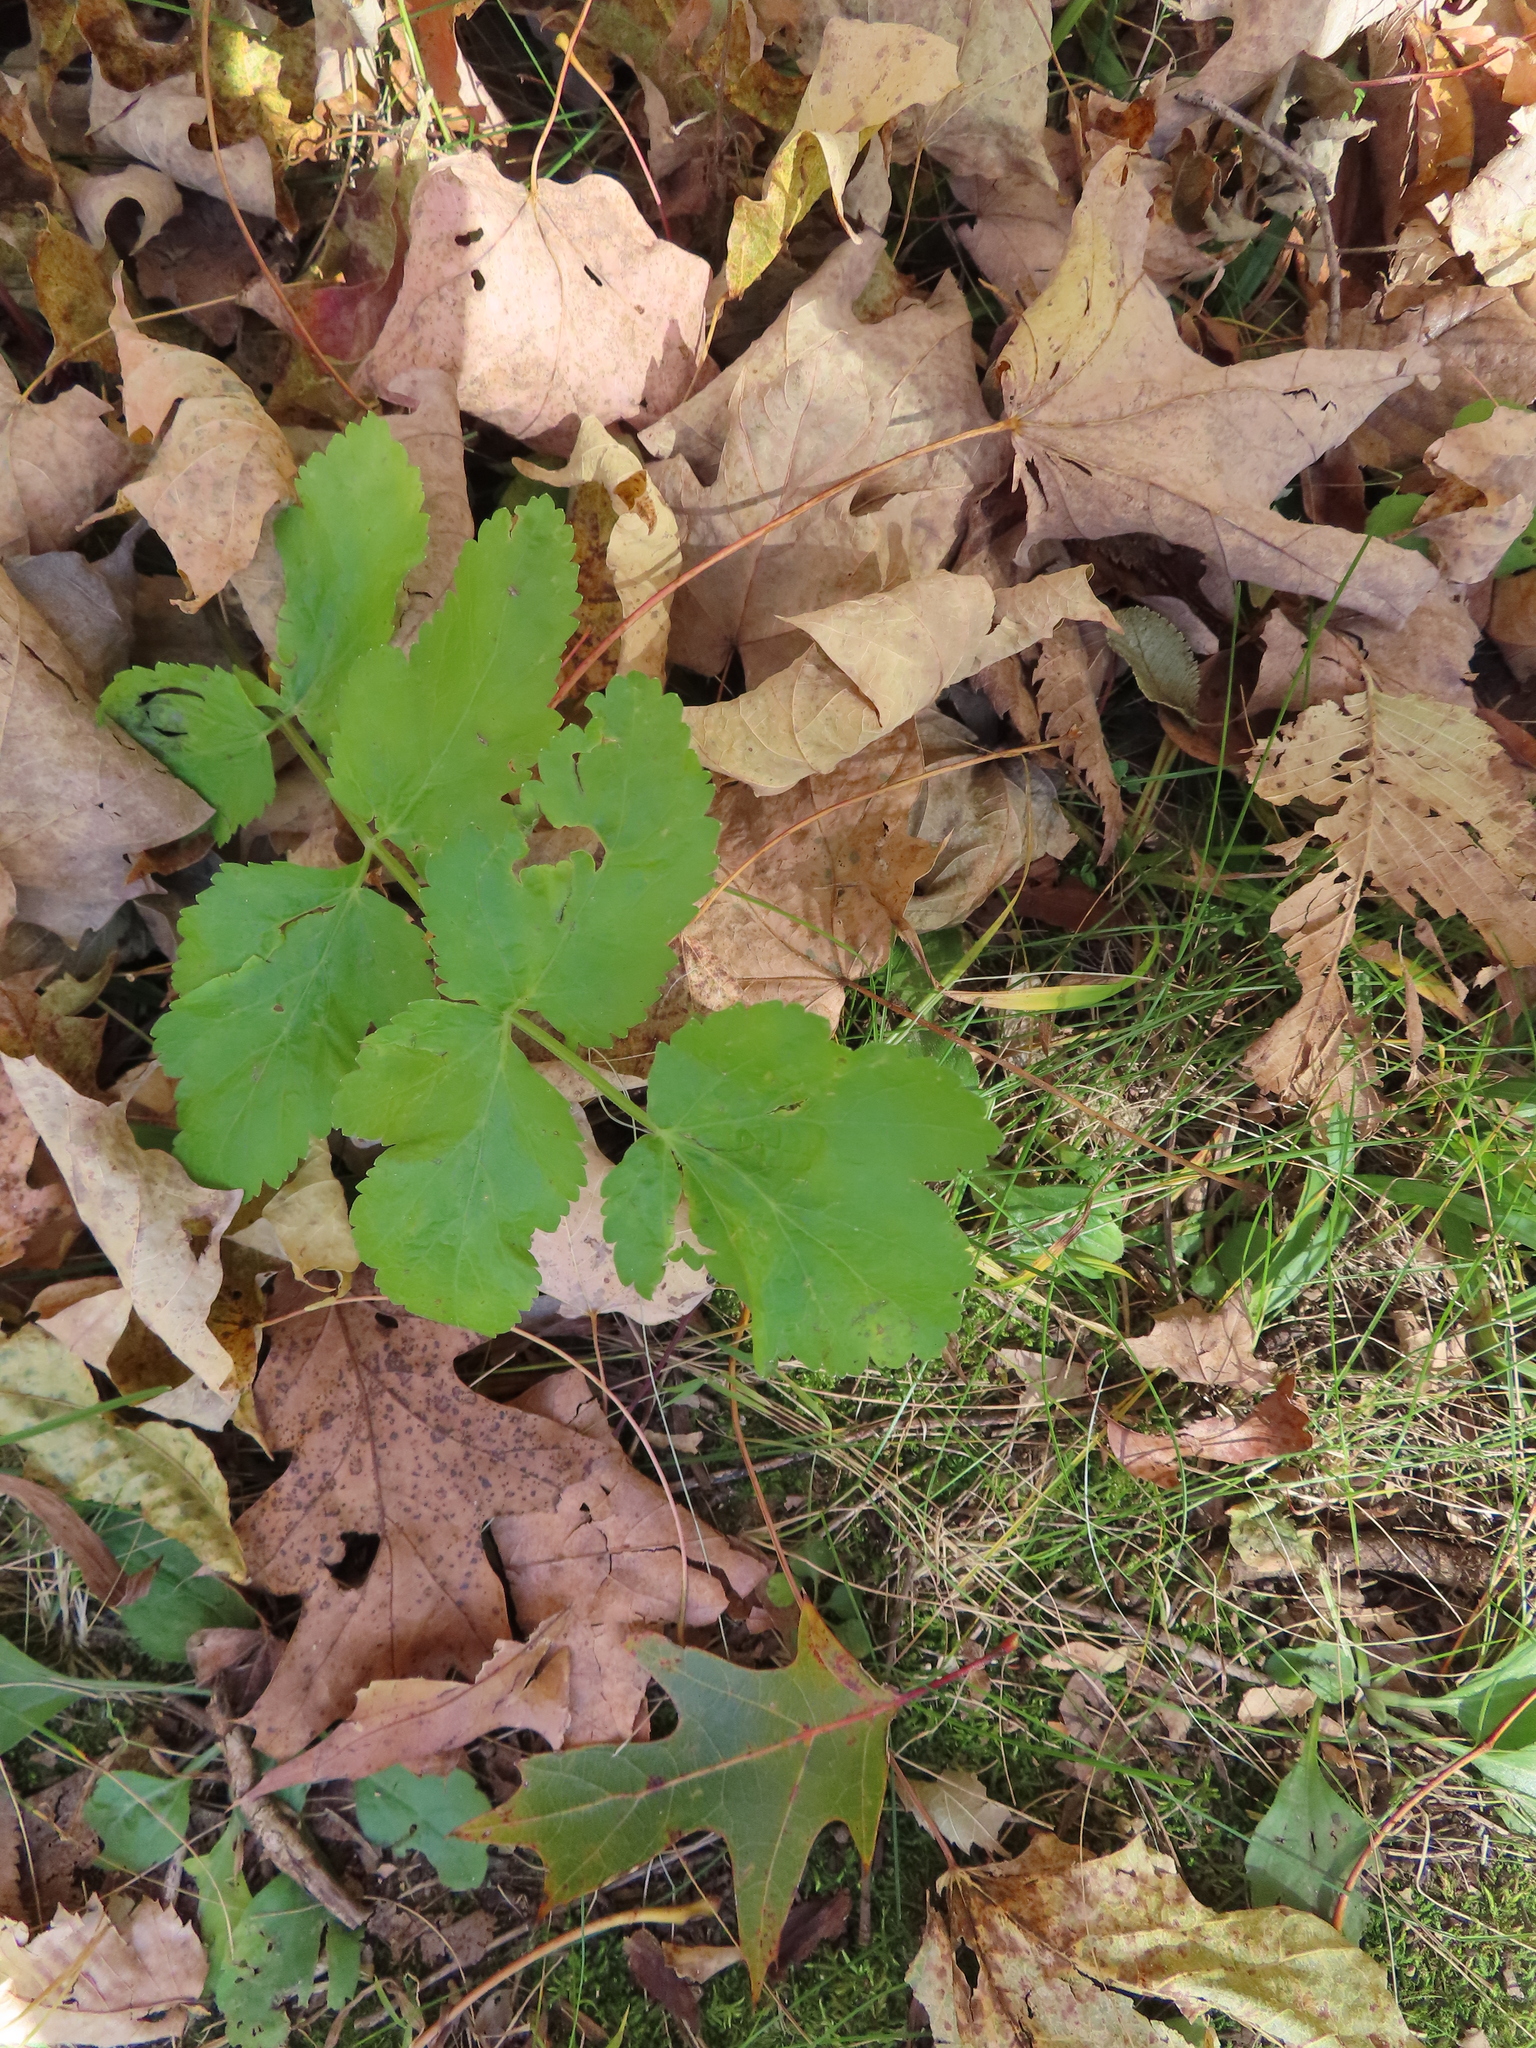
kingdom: Plantae
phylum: Tracheophyta
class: Magnoliopsida
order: Apiales
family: Apiaceae
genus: Pastinaca
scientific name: Pastinaca sativa
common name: Wild parsnip
